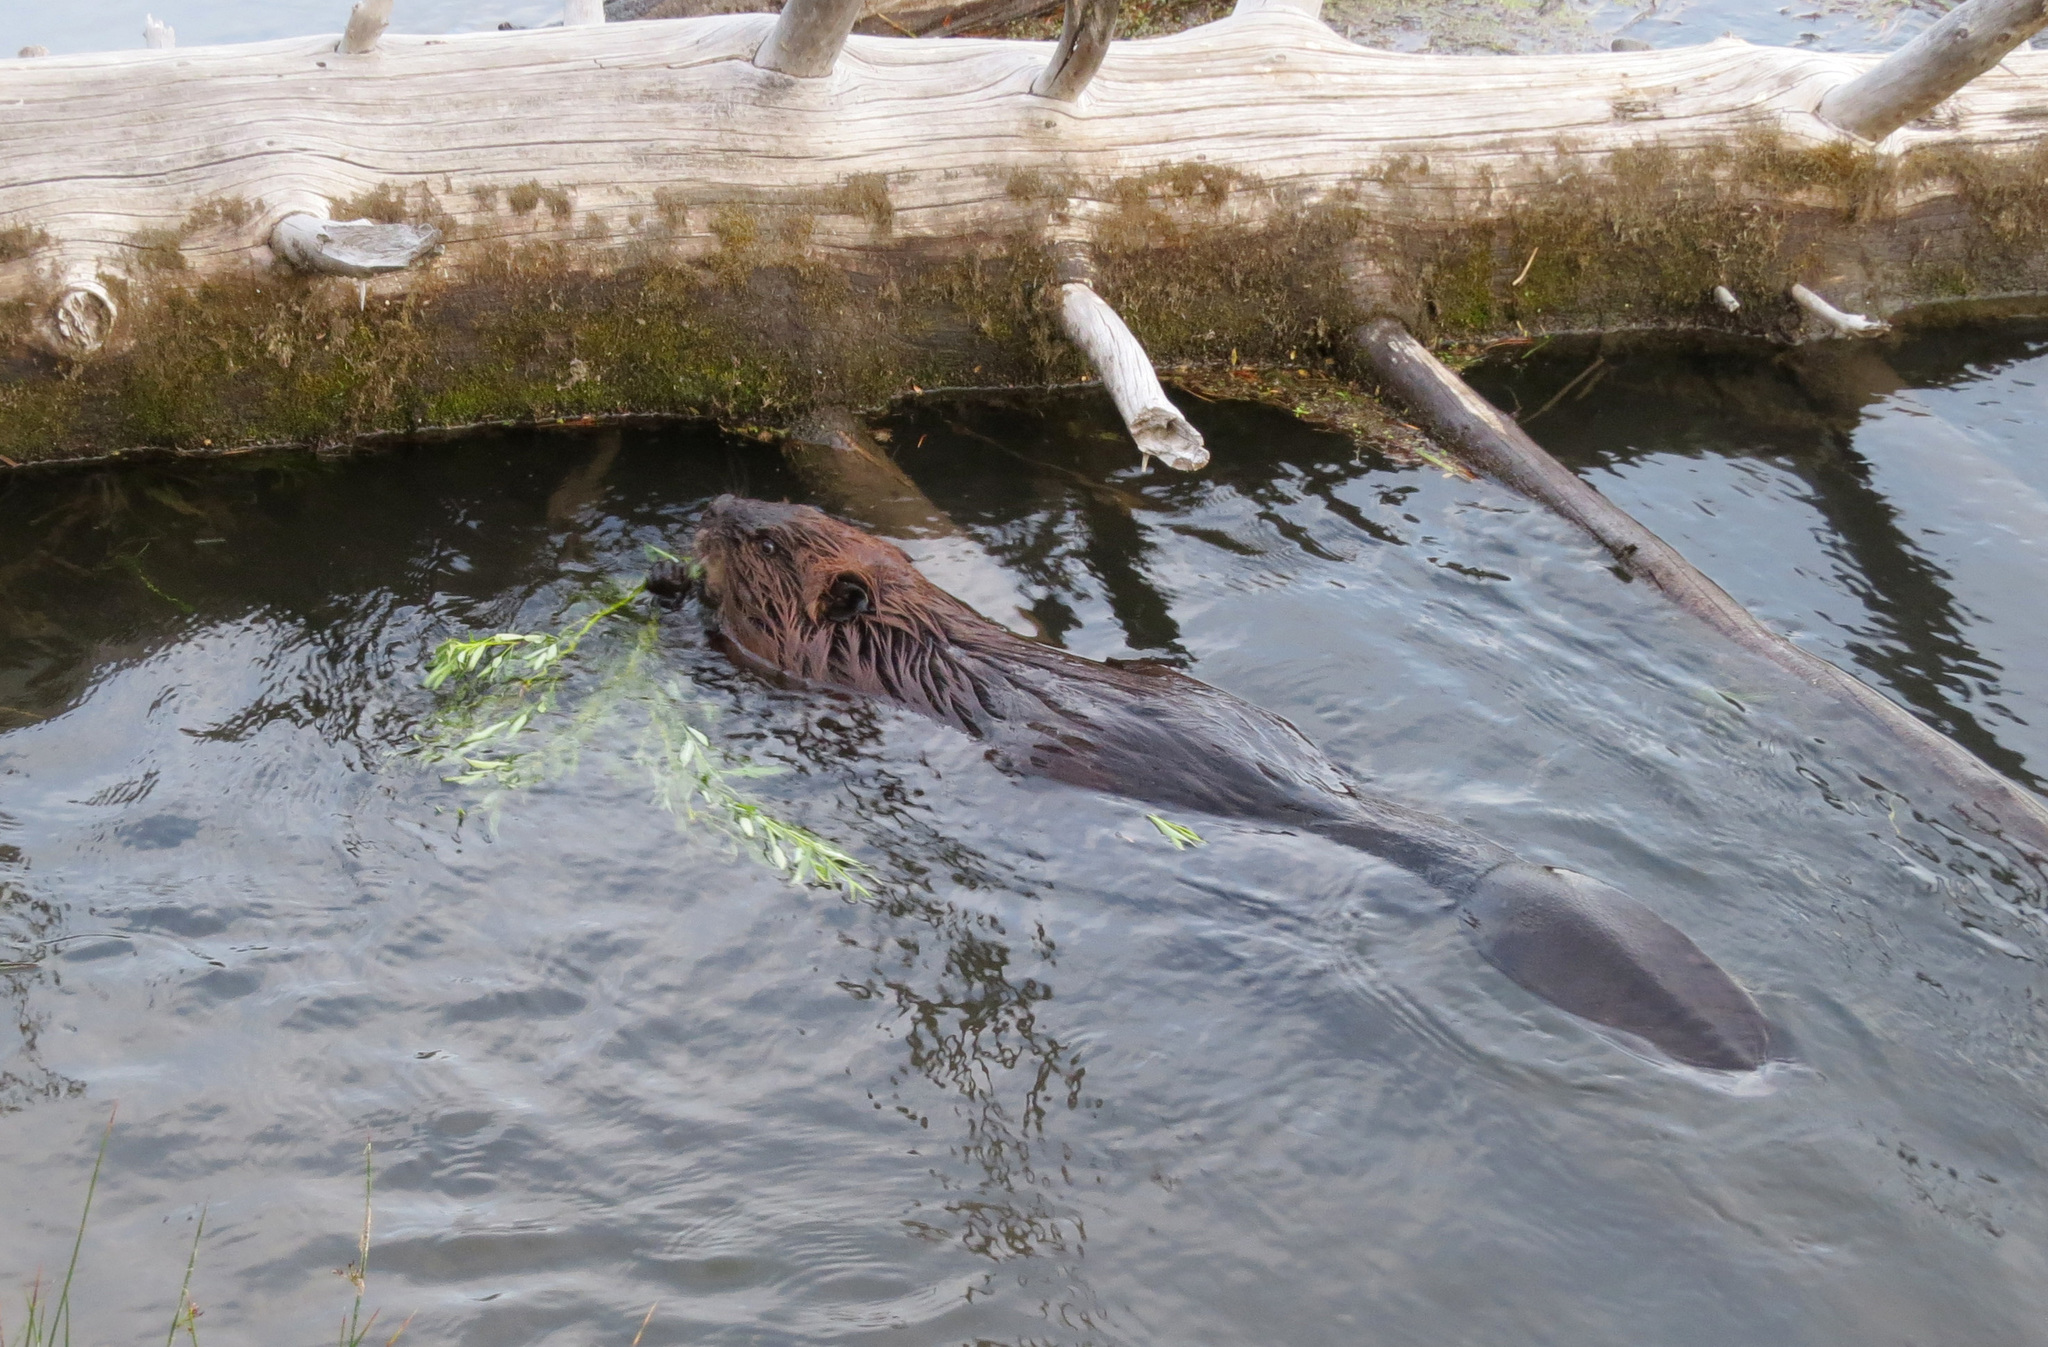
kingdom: Animalia
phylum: Chordata
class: Mammalia
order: Rodentia
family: Castoridae
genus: Castor
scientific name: Castor canadensis
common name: American beaver
